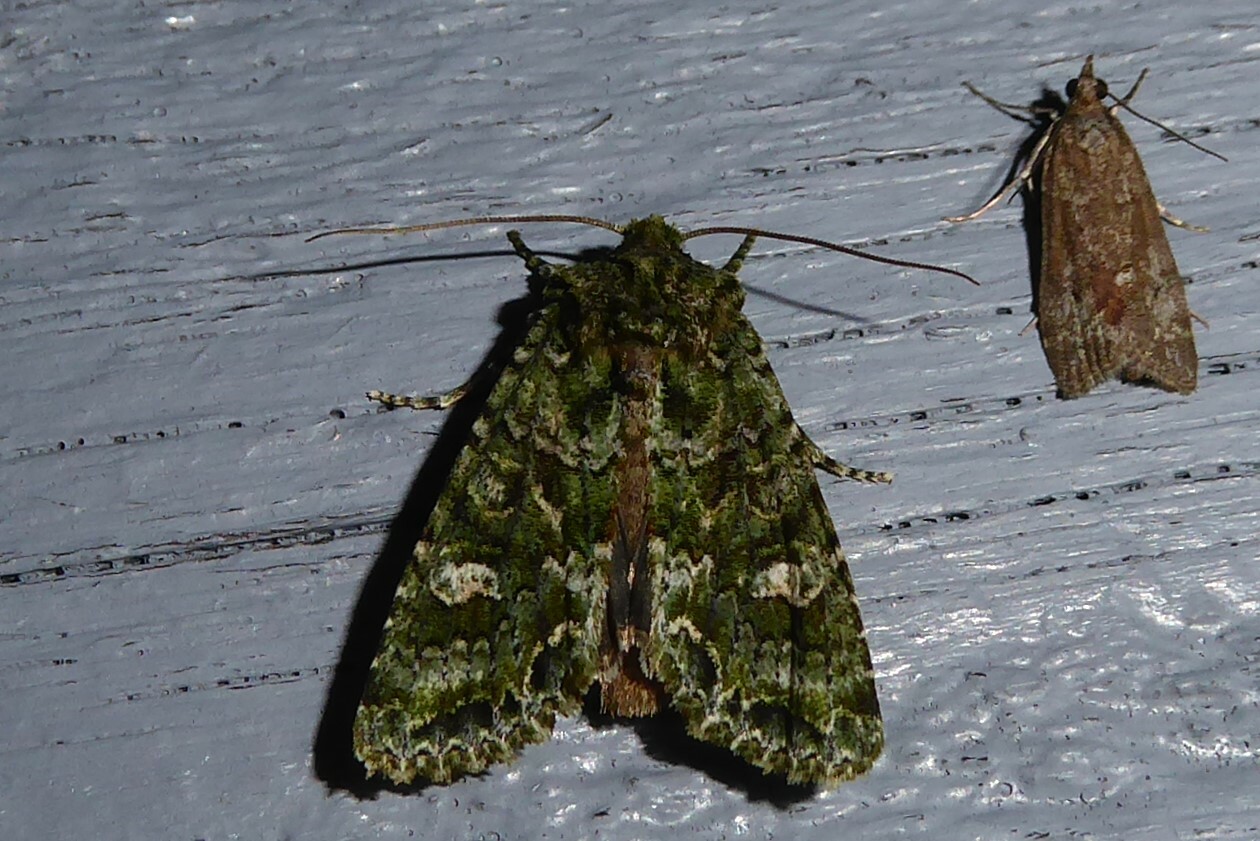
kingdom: Animalia
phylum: Arthropoda
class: Insecta
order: Lepidoptera
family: Noctuidae
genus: Ichneutica
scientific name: Ichneutica
